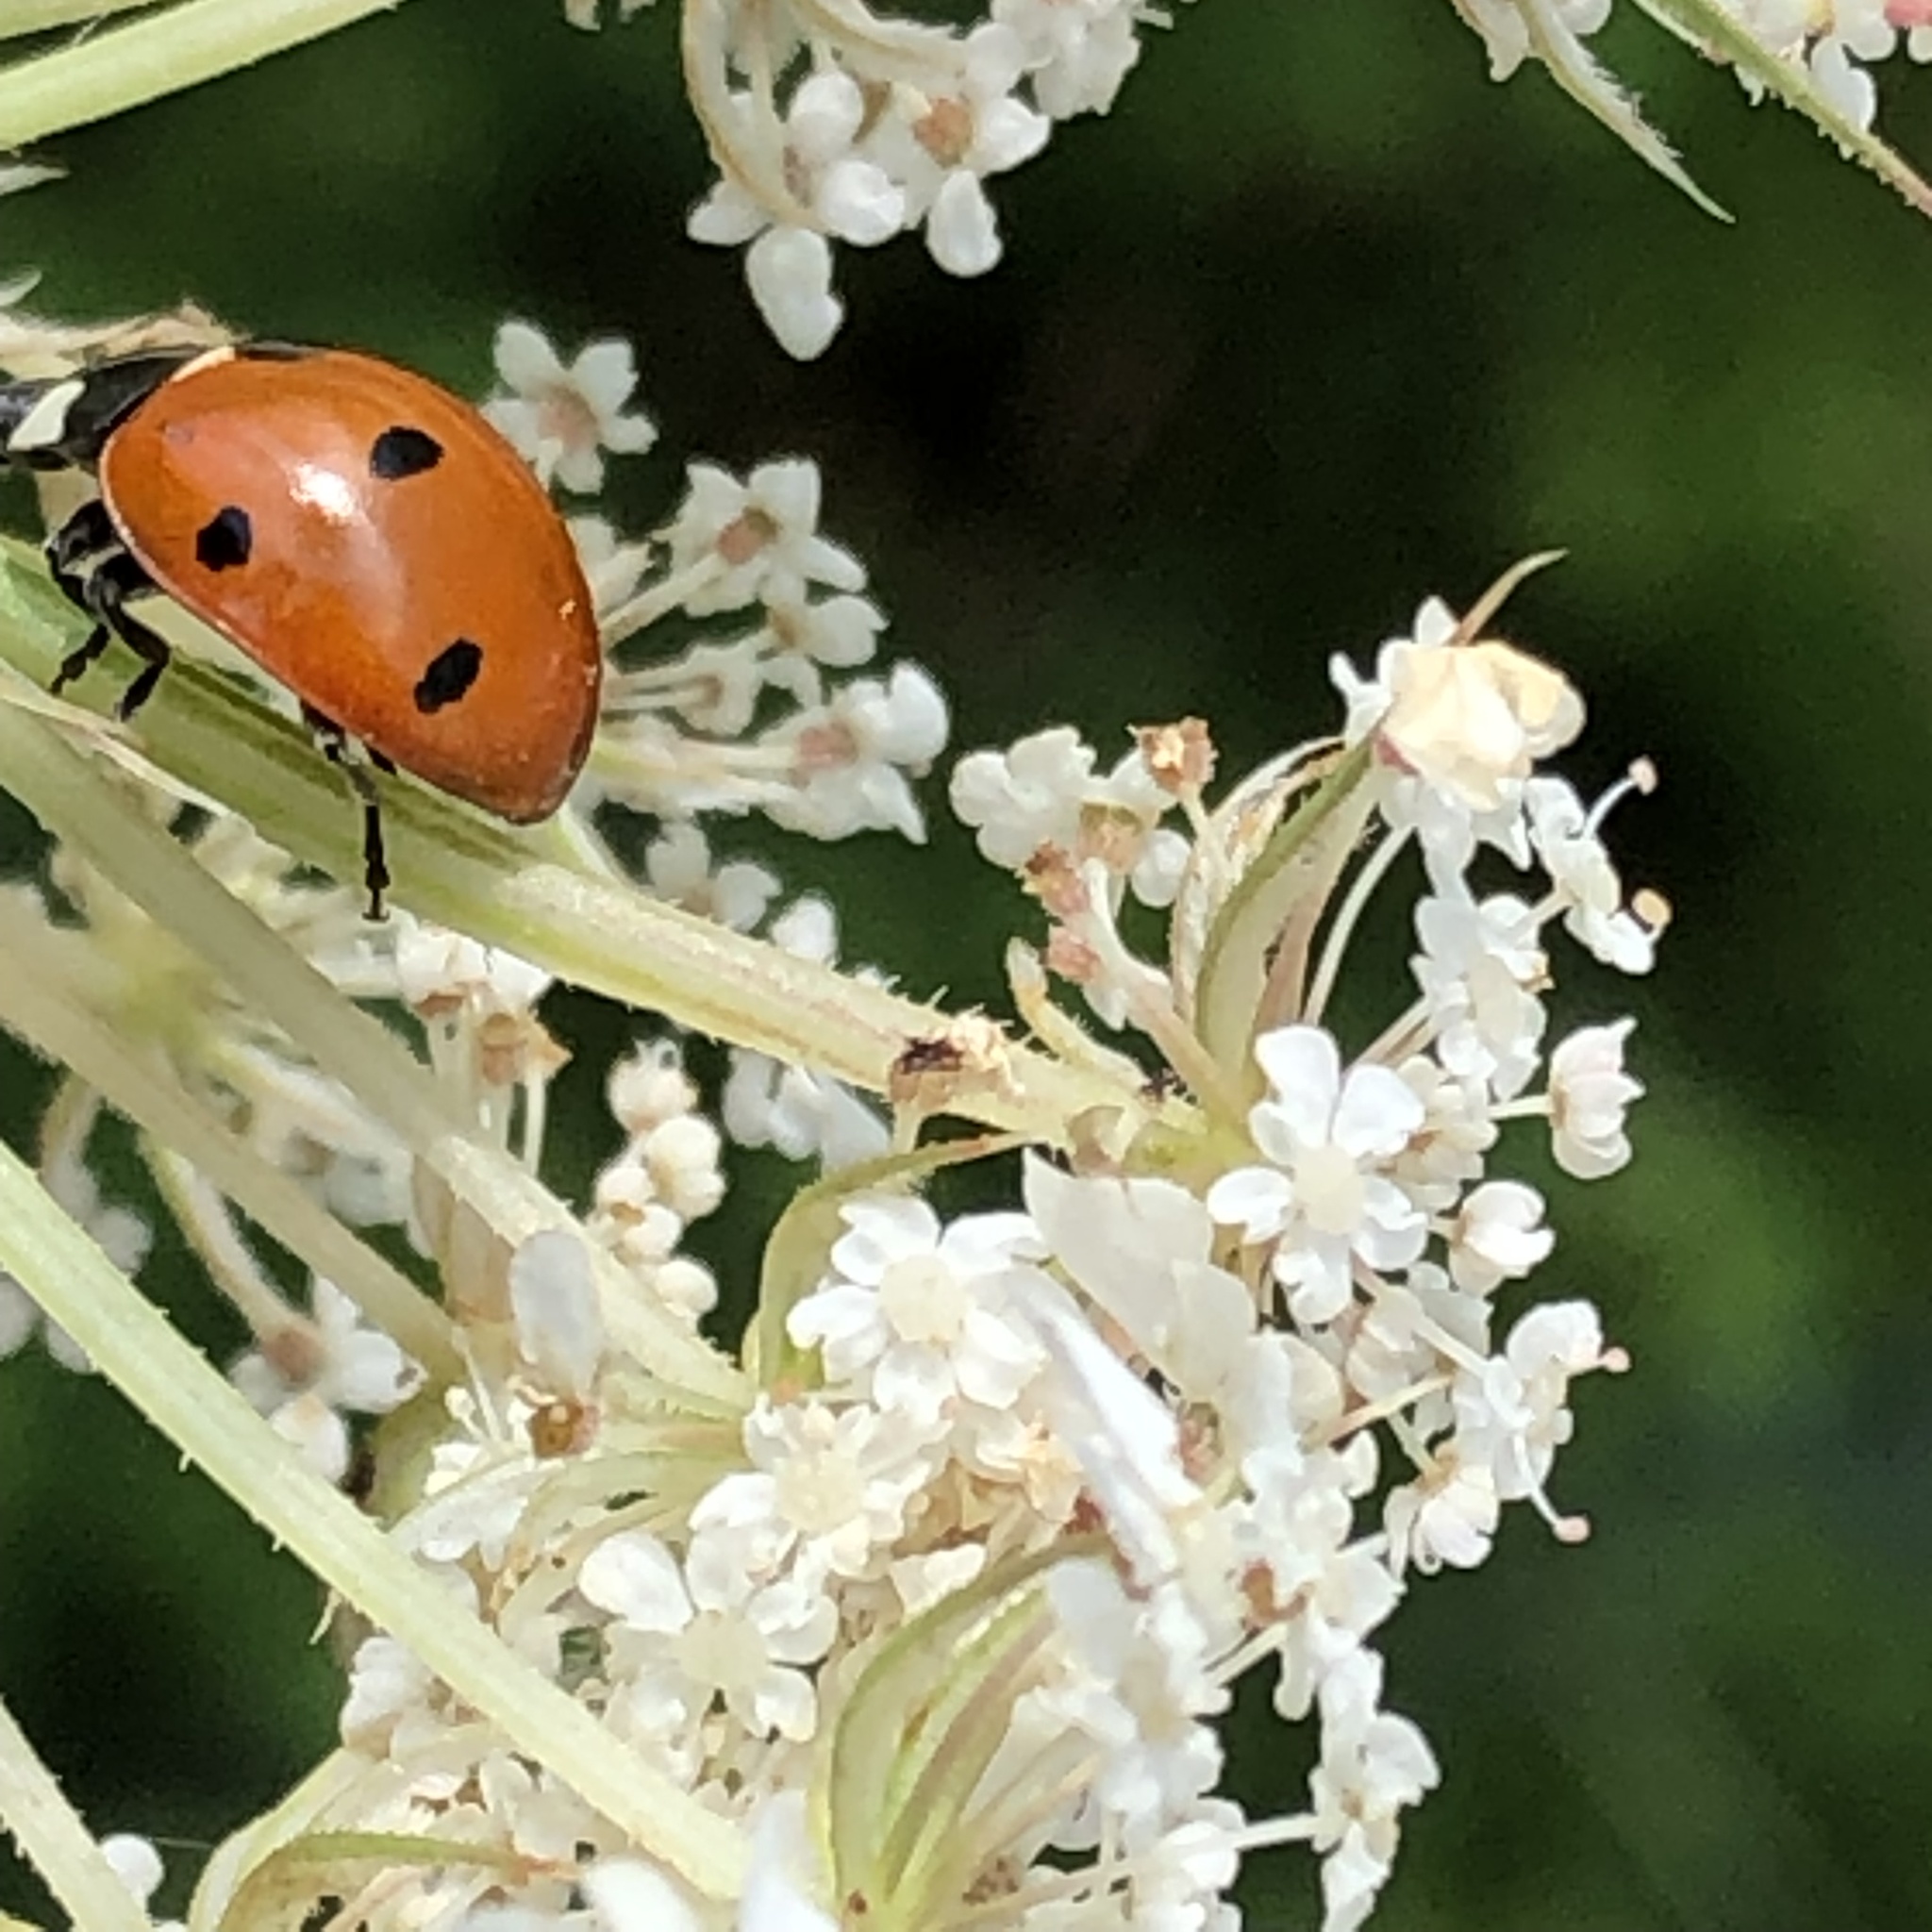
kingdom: Animalia
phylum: Arthropoda
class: Insecta
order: Coleoptera
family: Coccinellidae
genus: Coccinella
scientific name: Coccinella septempunctata
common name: Sevenspotted lady beetle
